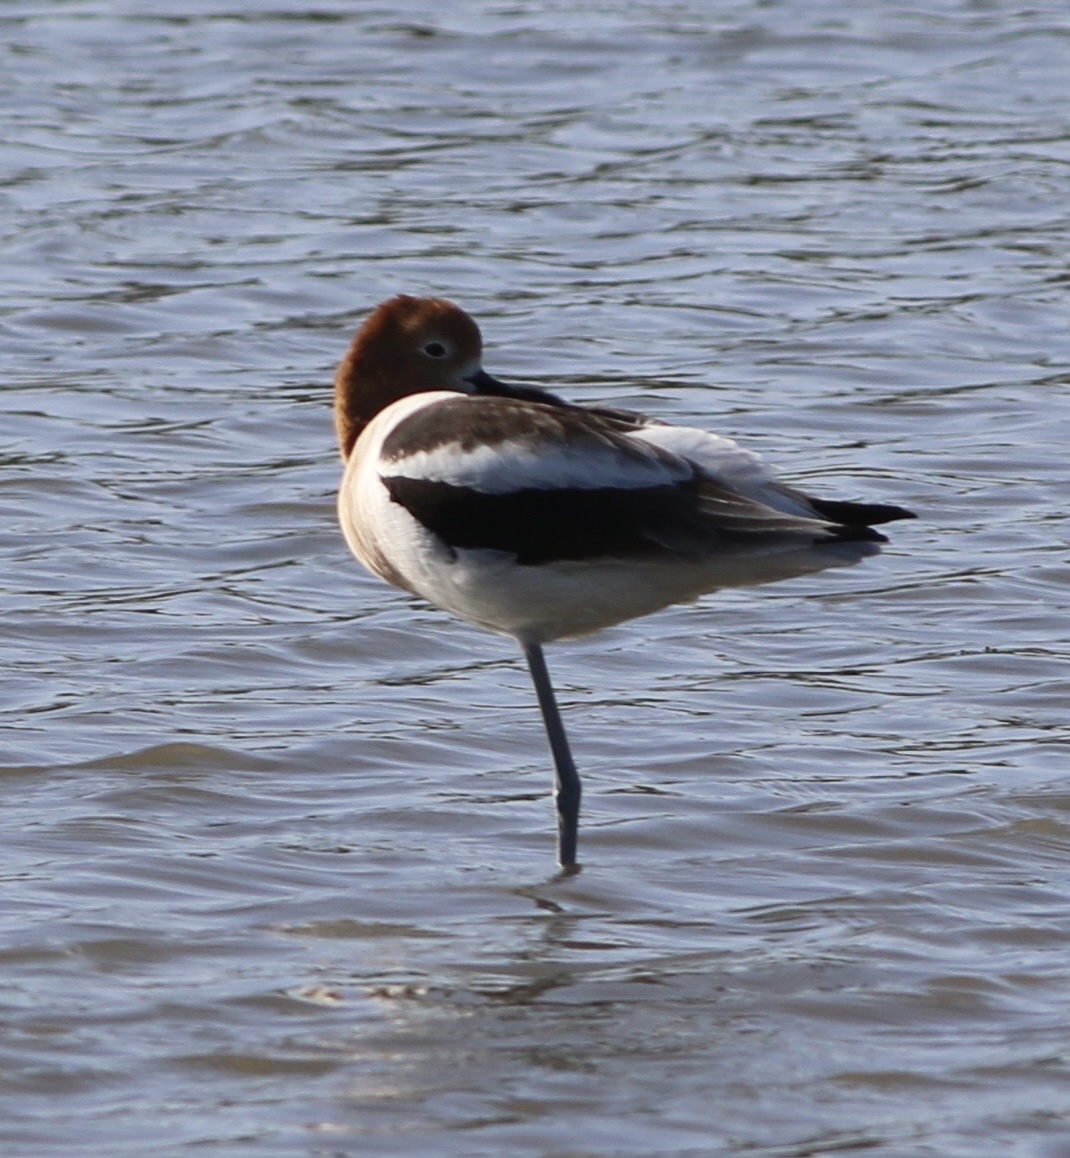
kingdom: Animalia
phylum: Chordata
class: Aves
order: Charadriiformes
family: Recurvirostridae
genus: Recurvirostra
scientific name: Recurvirostra americana
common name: American avocet
